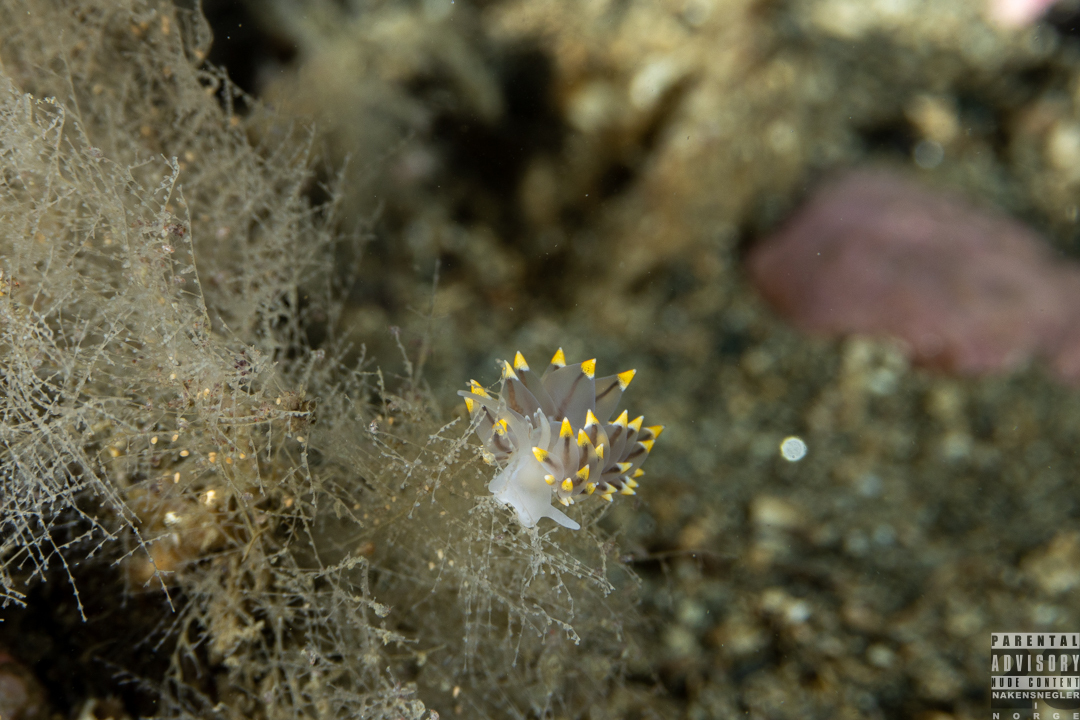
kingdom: Animalia
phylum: Mollusca
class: Gastropoda
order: Nudibranchia
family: Eubranchidae
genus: Eubranchus
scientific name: Eubranchus tricolor
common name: Painted balloon aeolis
